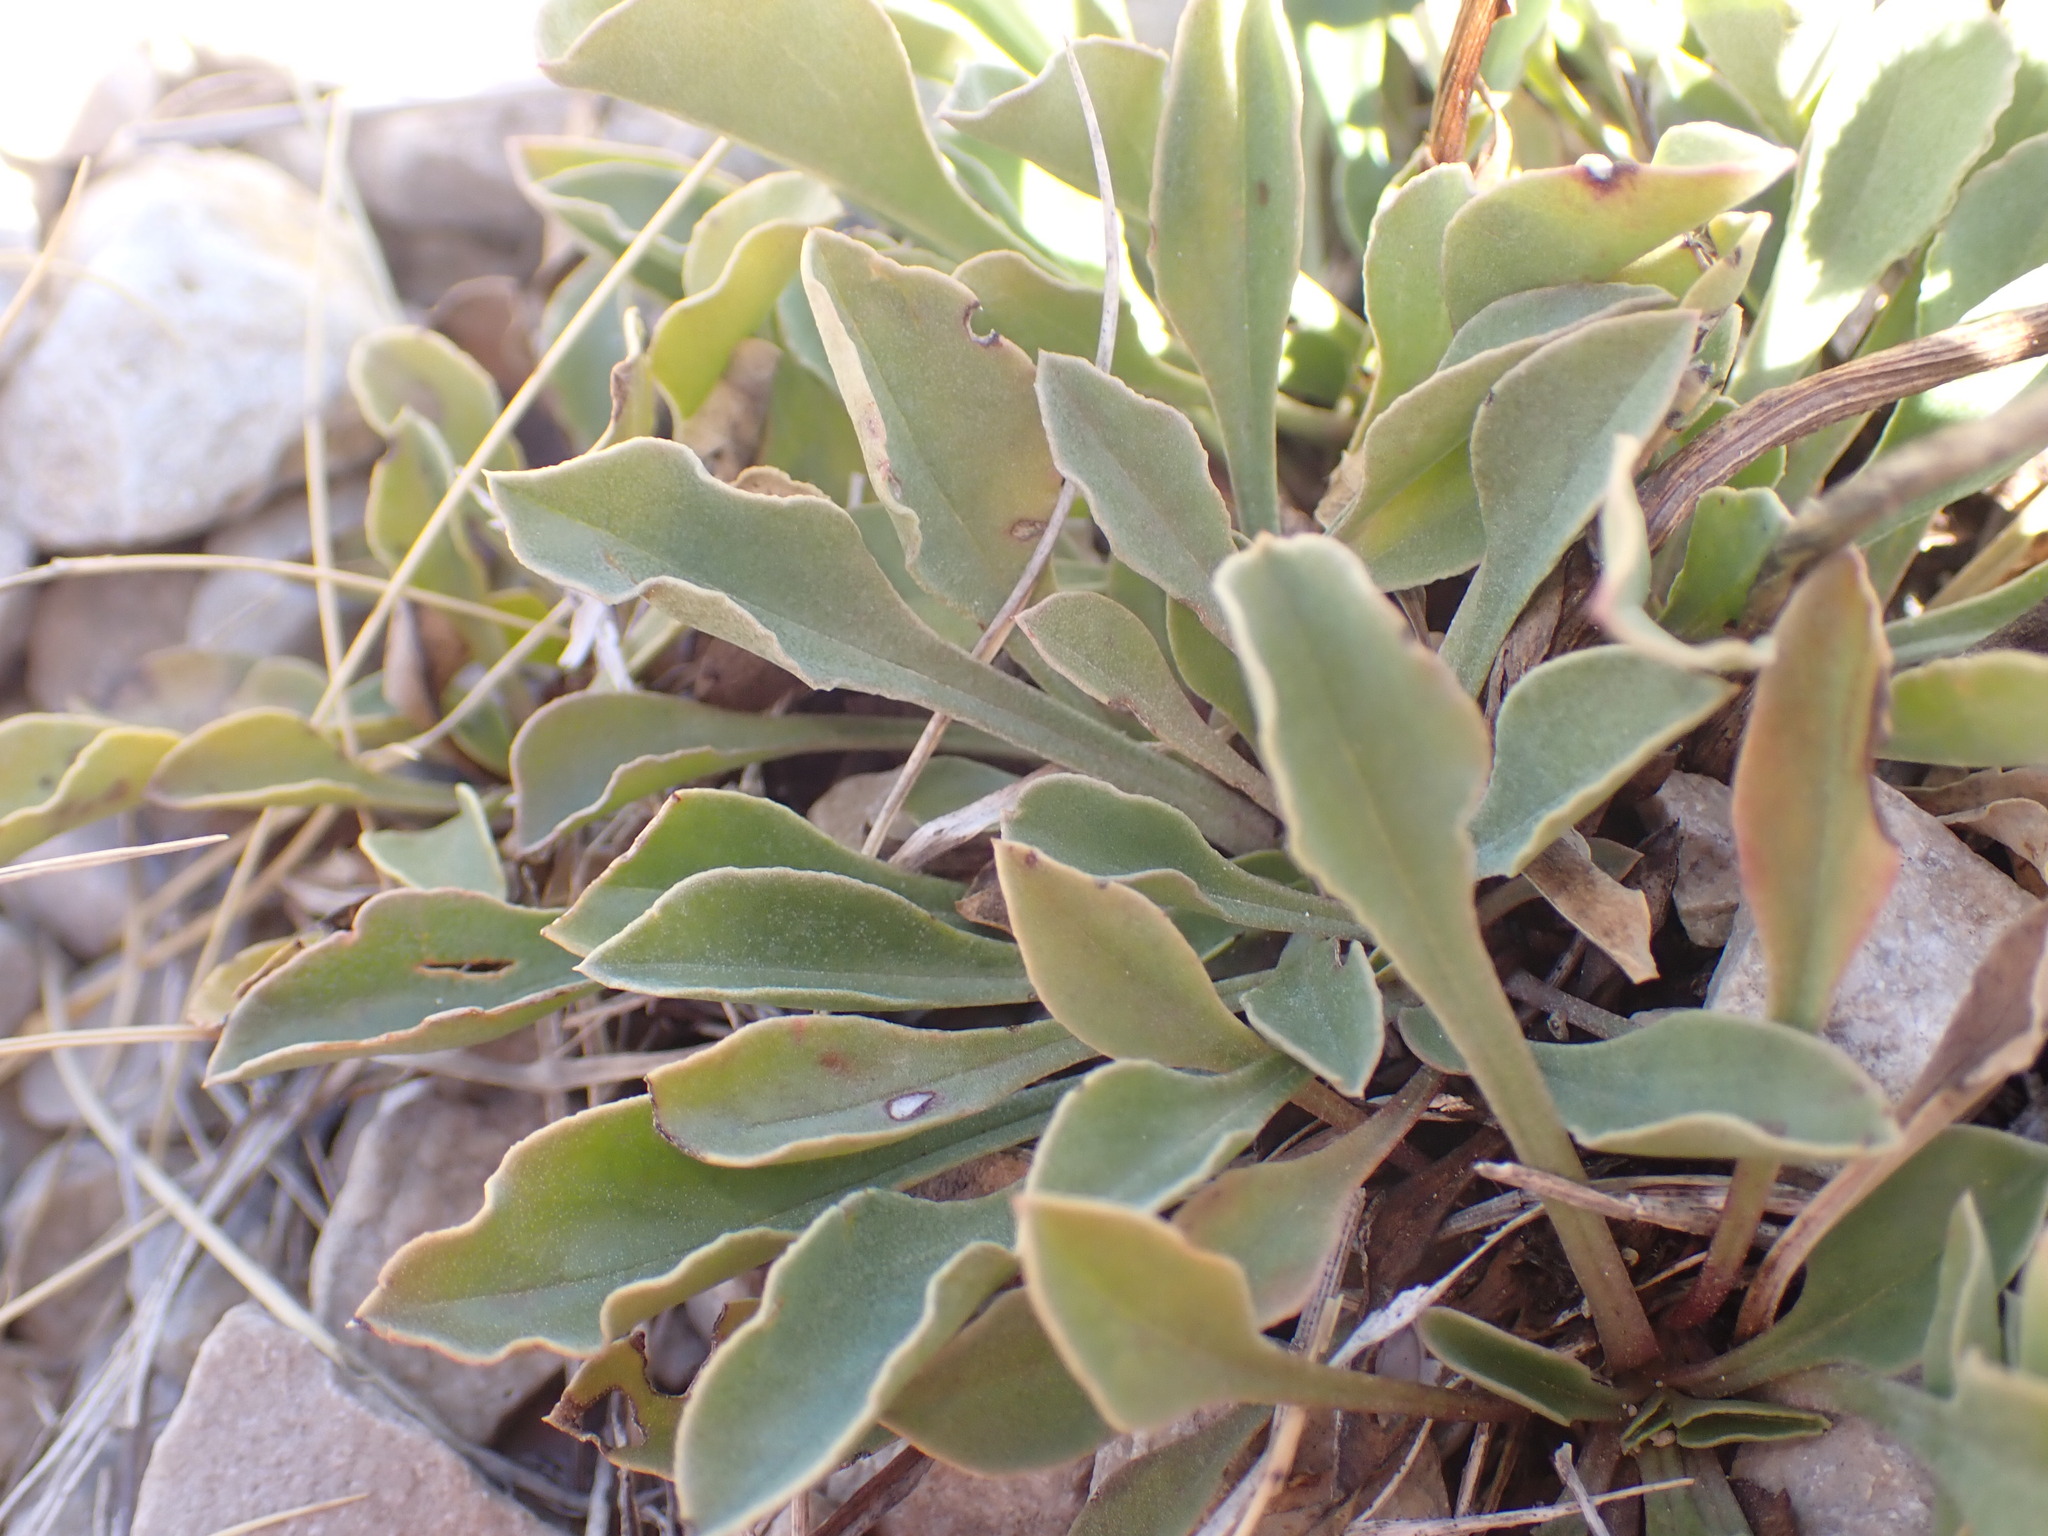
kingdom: Plantae
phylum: Tracheophyta
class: Magnoliopsida
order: Lamiales
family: Plantaginaceae
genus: Globularia
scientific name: Globularia vulgaris
